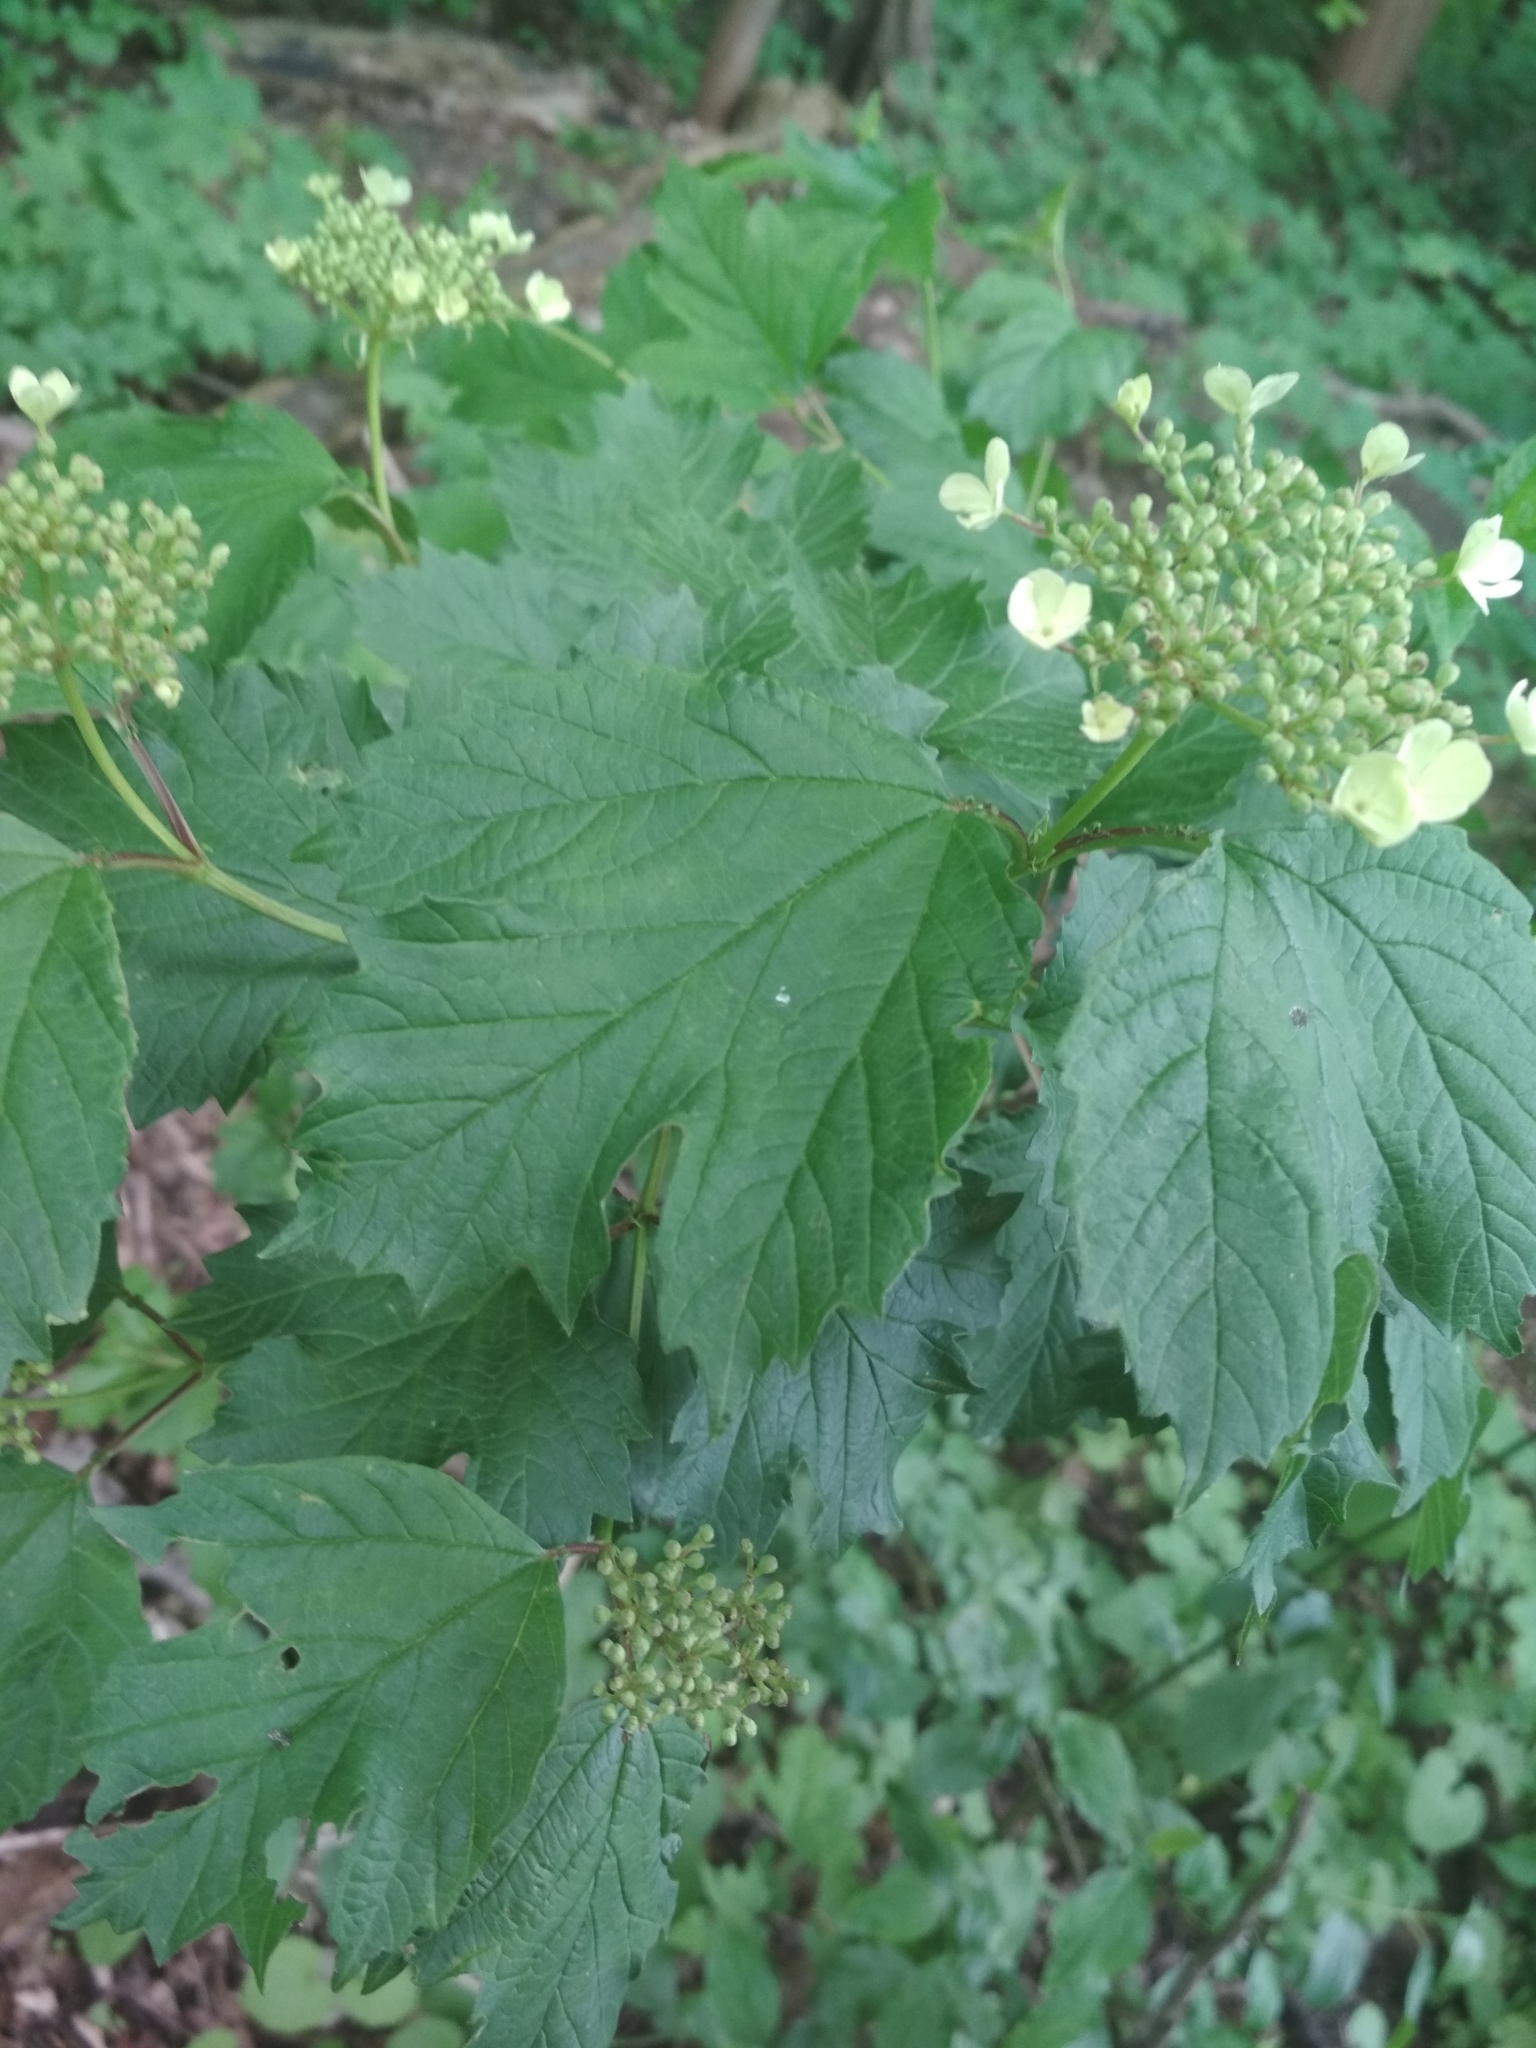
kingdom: Plantae
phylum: Tracheophyta
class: Magnoliopsida
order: Dipsacales
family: Viburnaceae
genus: Viburnum
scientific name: Viburnum opulus
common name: Guelder-rose
